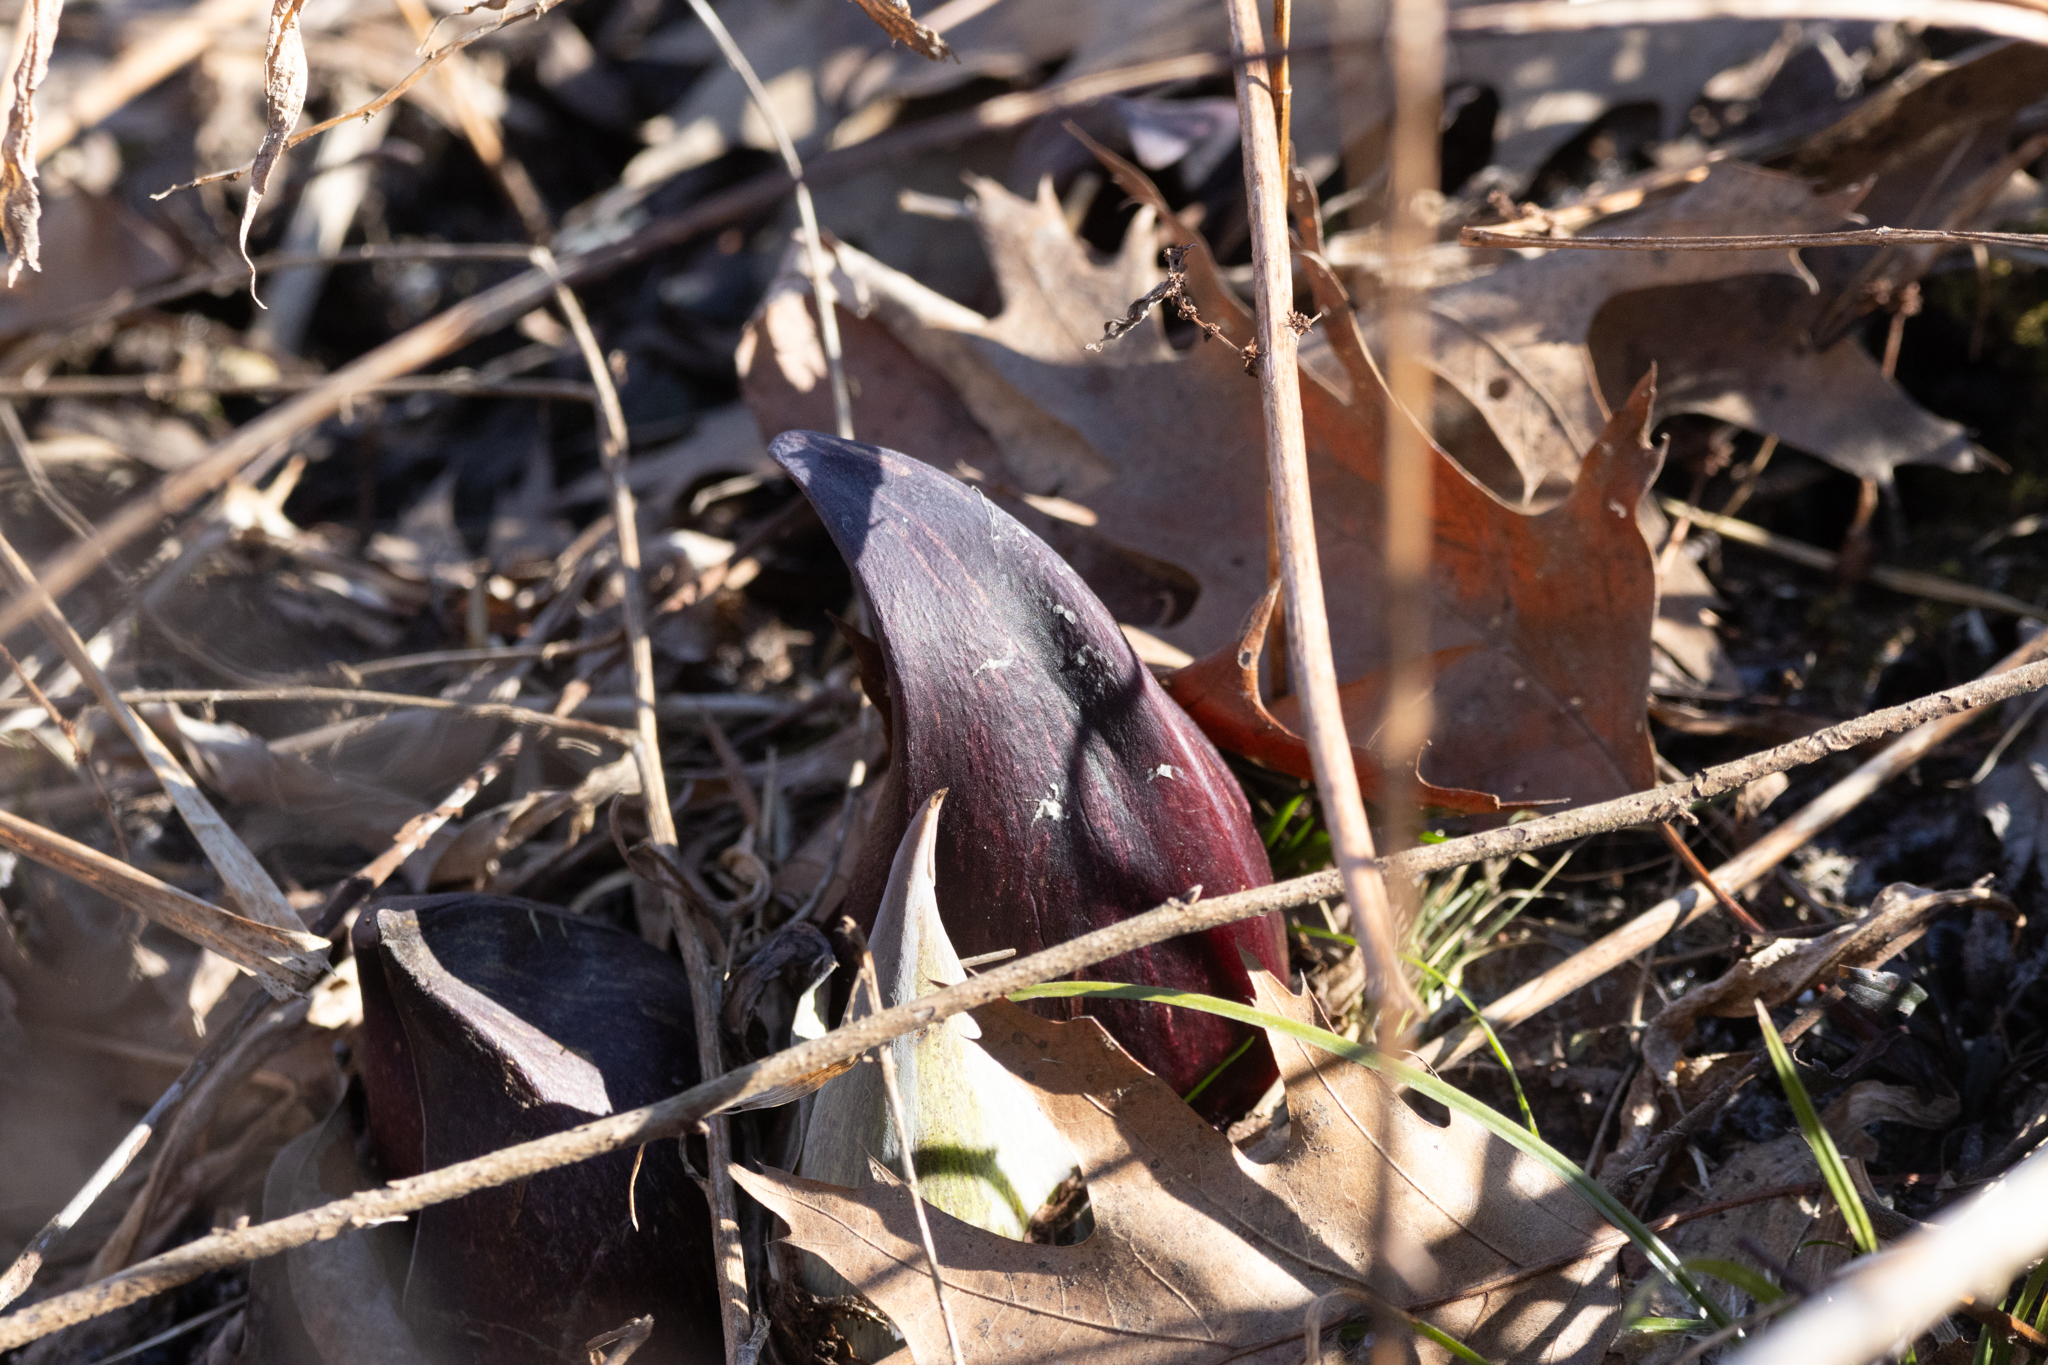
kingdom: Plantae
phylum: Tracheophyta
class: Liliopsida
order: Alismatales
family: Araceae
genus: Symplocarpus
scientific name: Symplocarpus foetidus
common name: Eastern skunk cabbage
